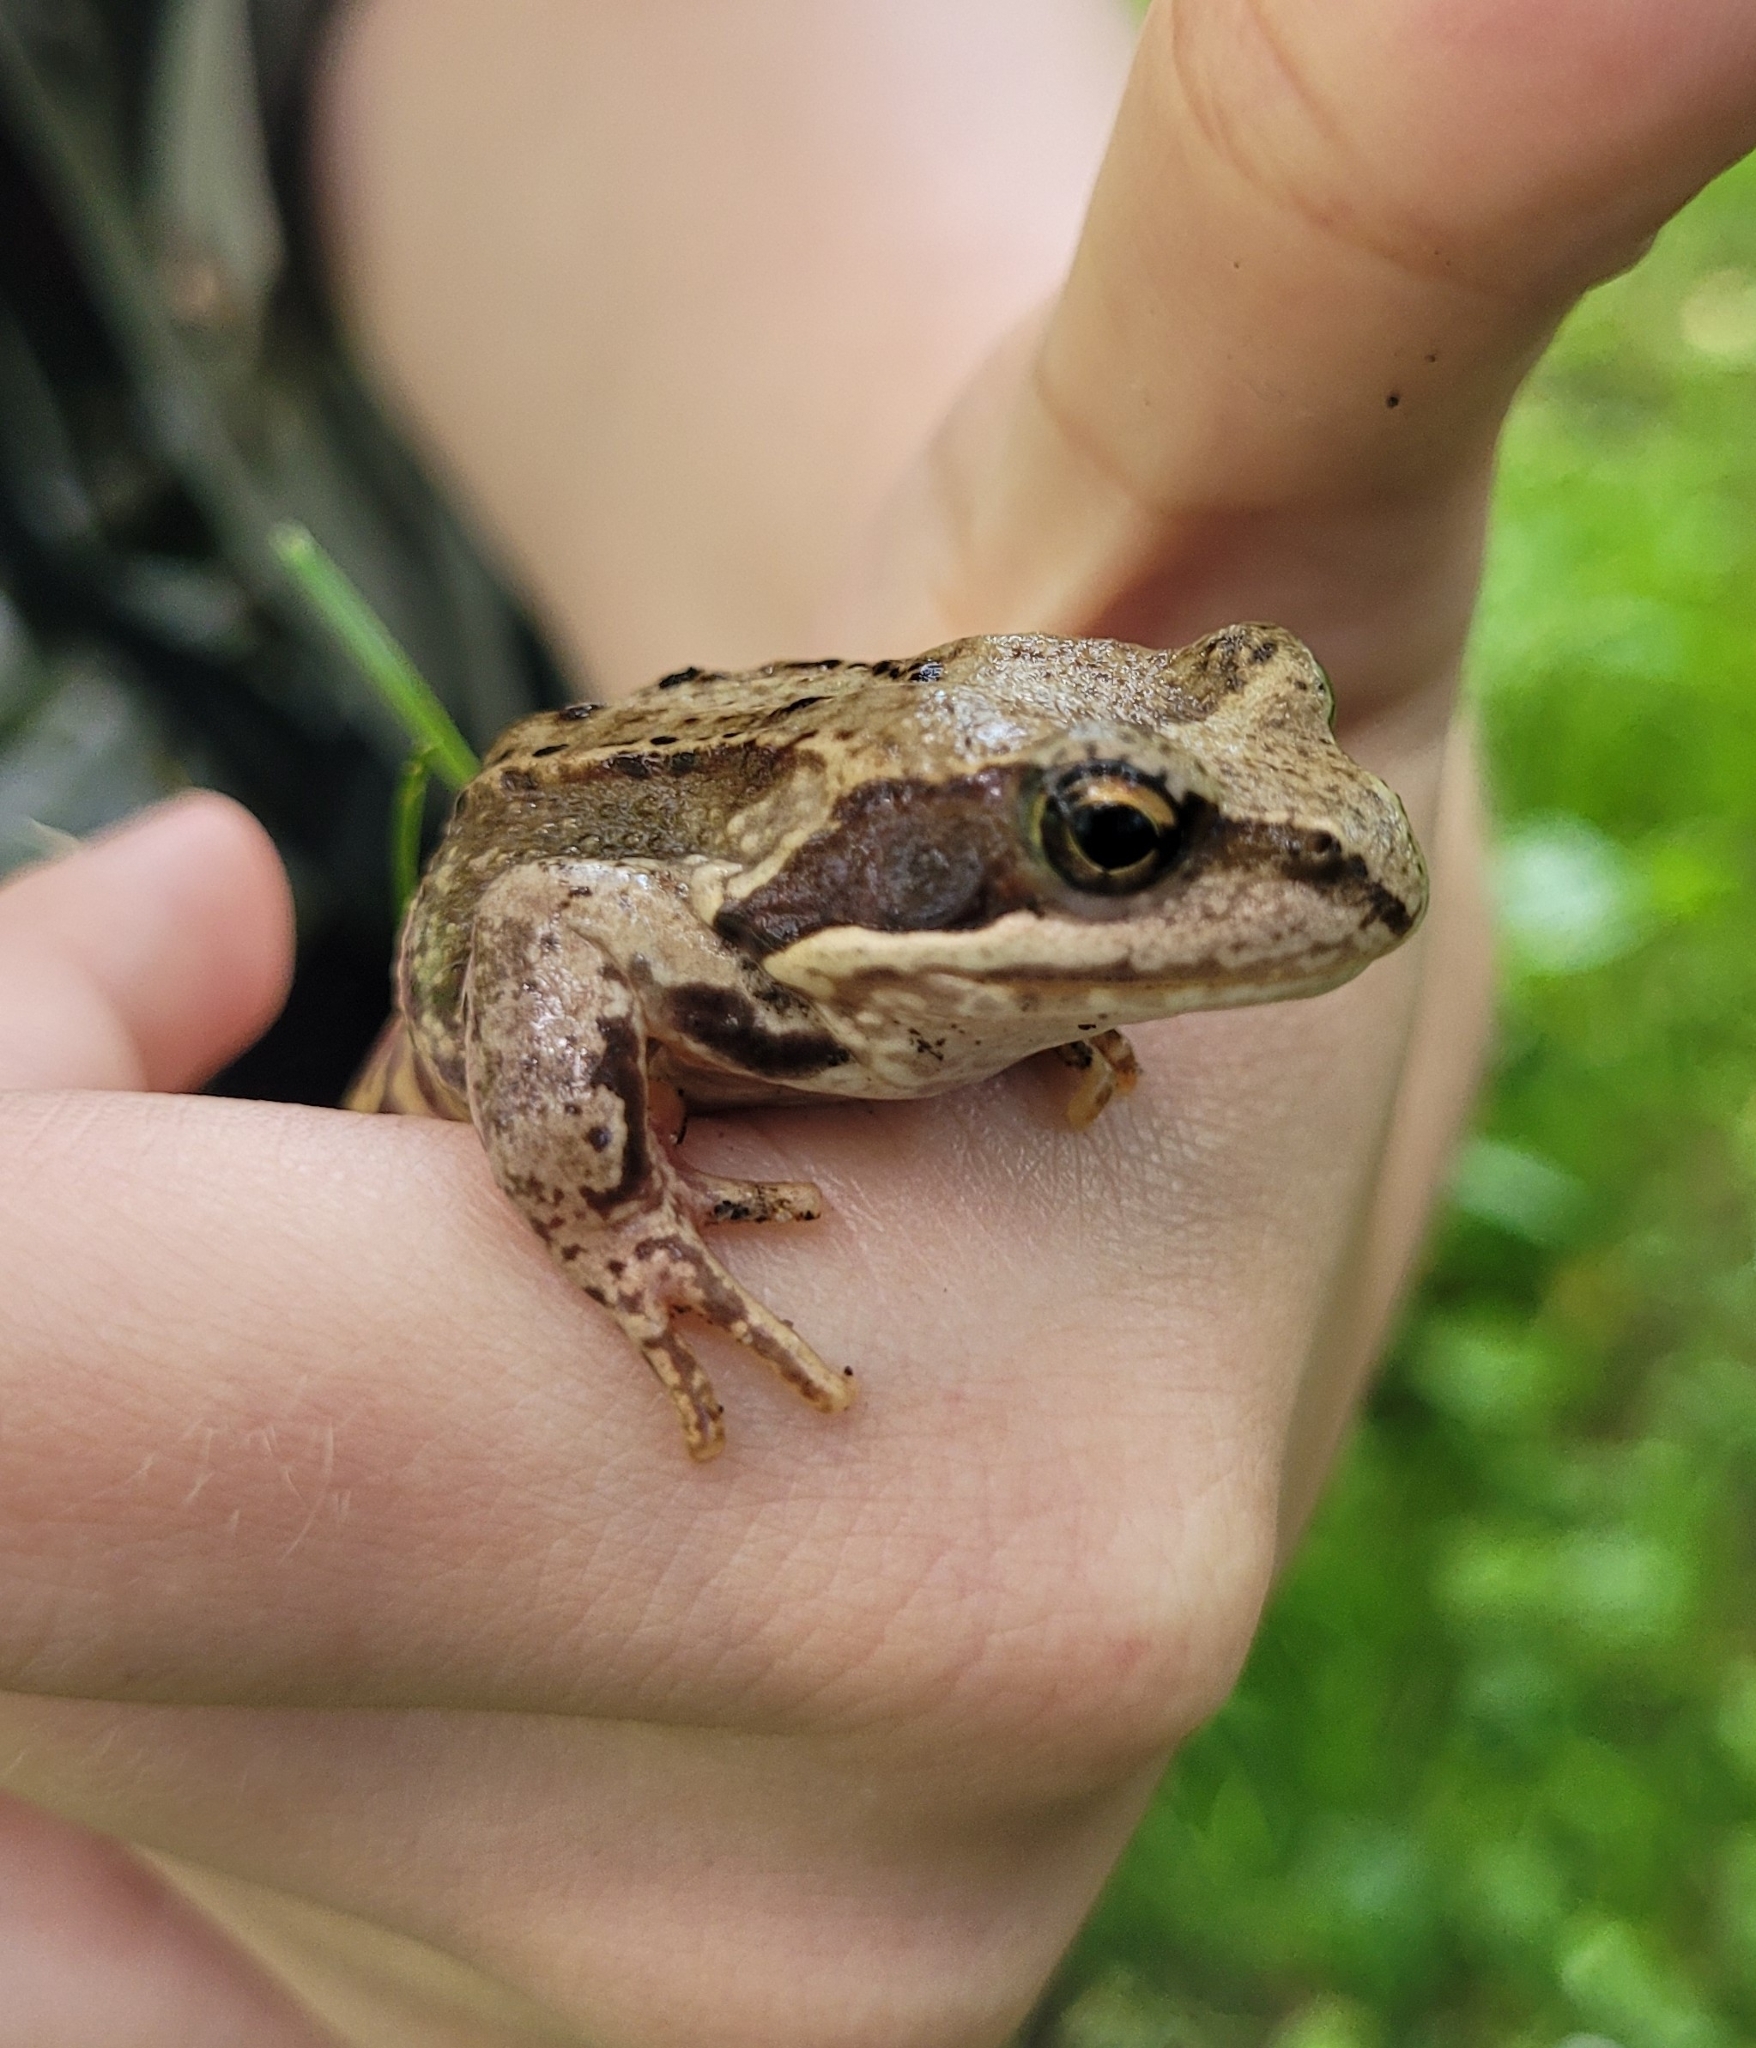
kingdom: Animalia
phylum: Chordata
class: Amphibia
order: Anura
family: Ranidae
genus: Rana
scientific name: Rana temporaria
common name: Common frog
